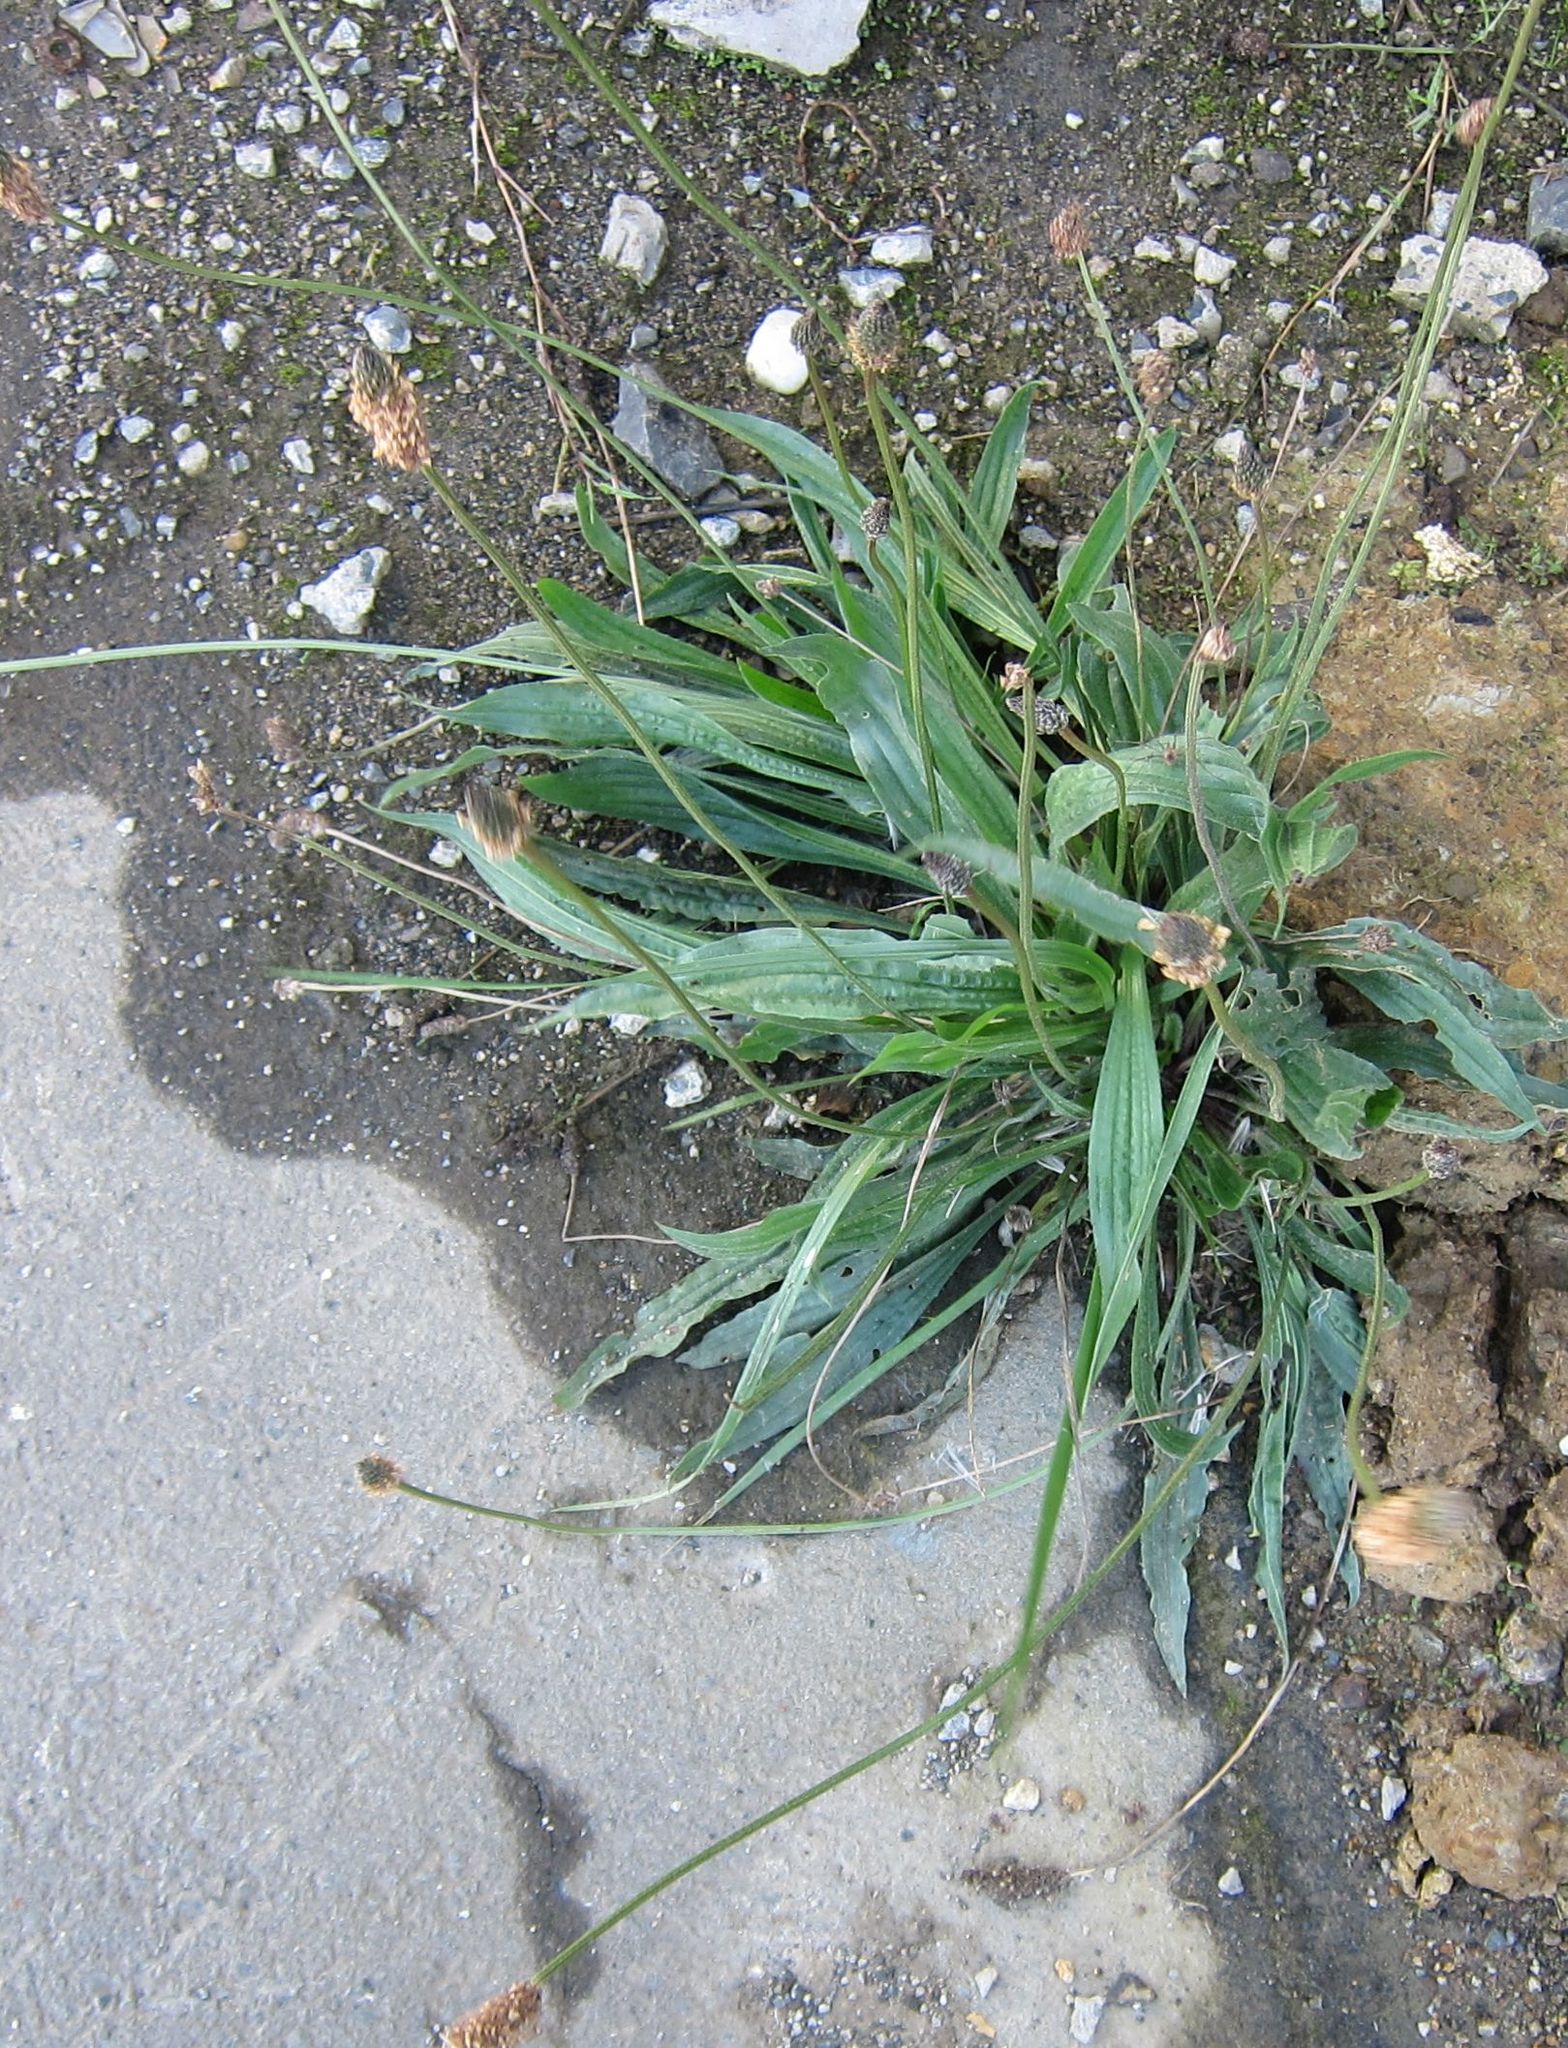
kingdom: Plantae
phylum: Tracheophyta
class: Magnoliopsida
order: Lamiales
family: Plantaginaceae
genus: Plantago
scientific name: Plantago lanceolata
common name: Ribwort plantain
